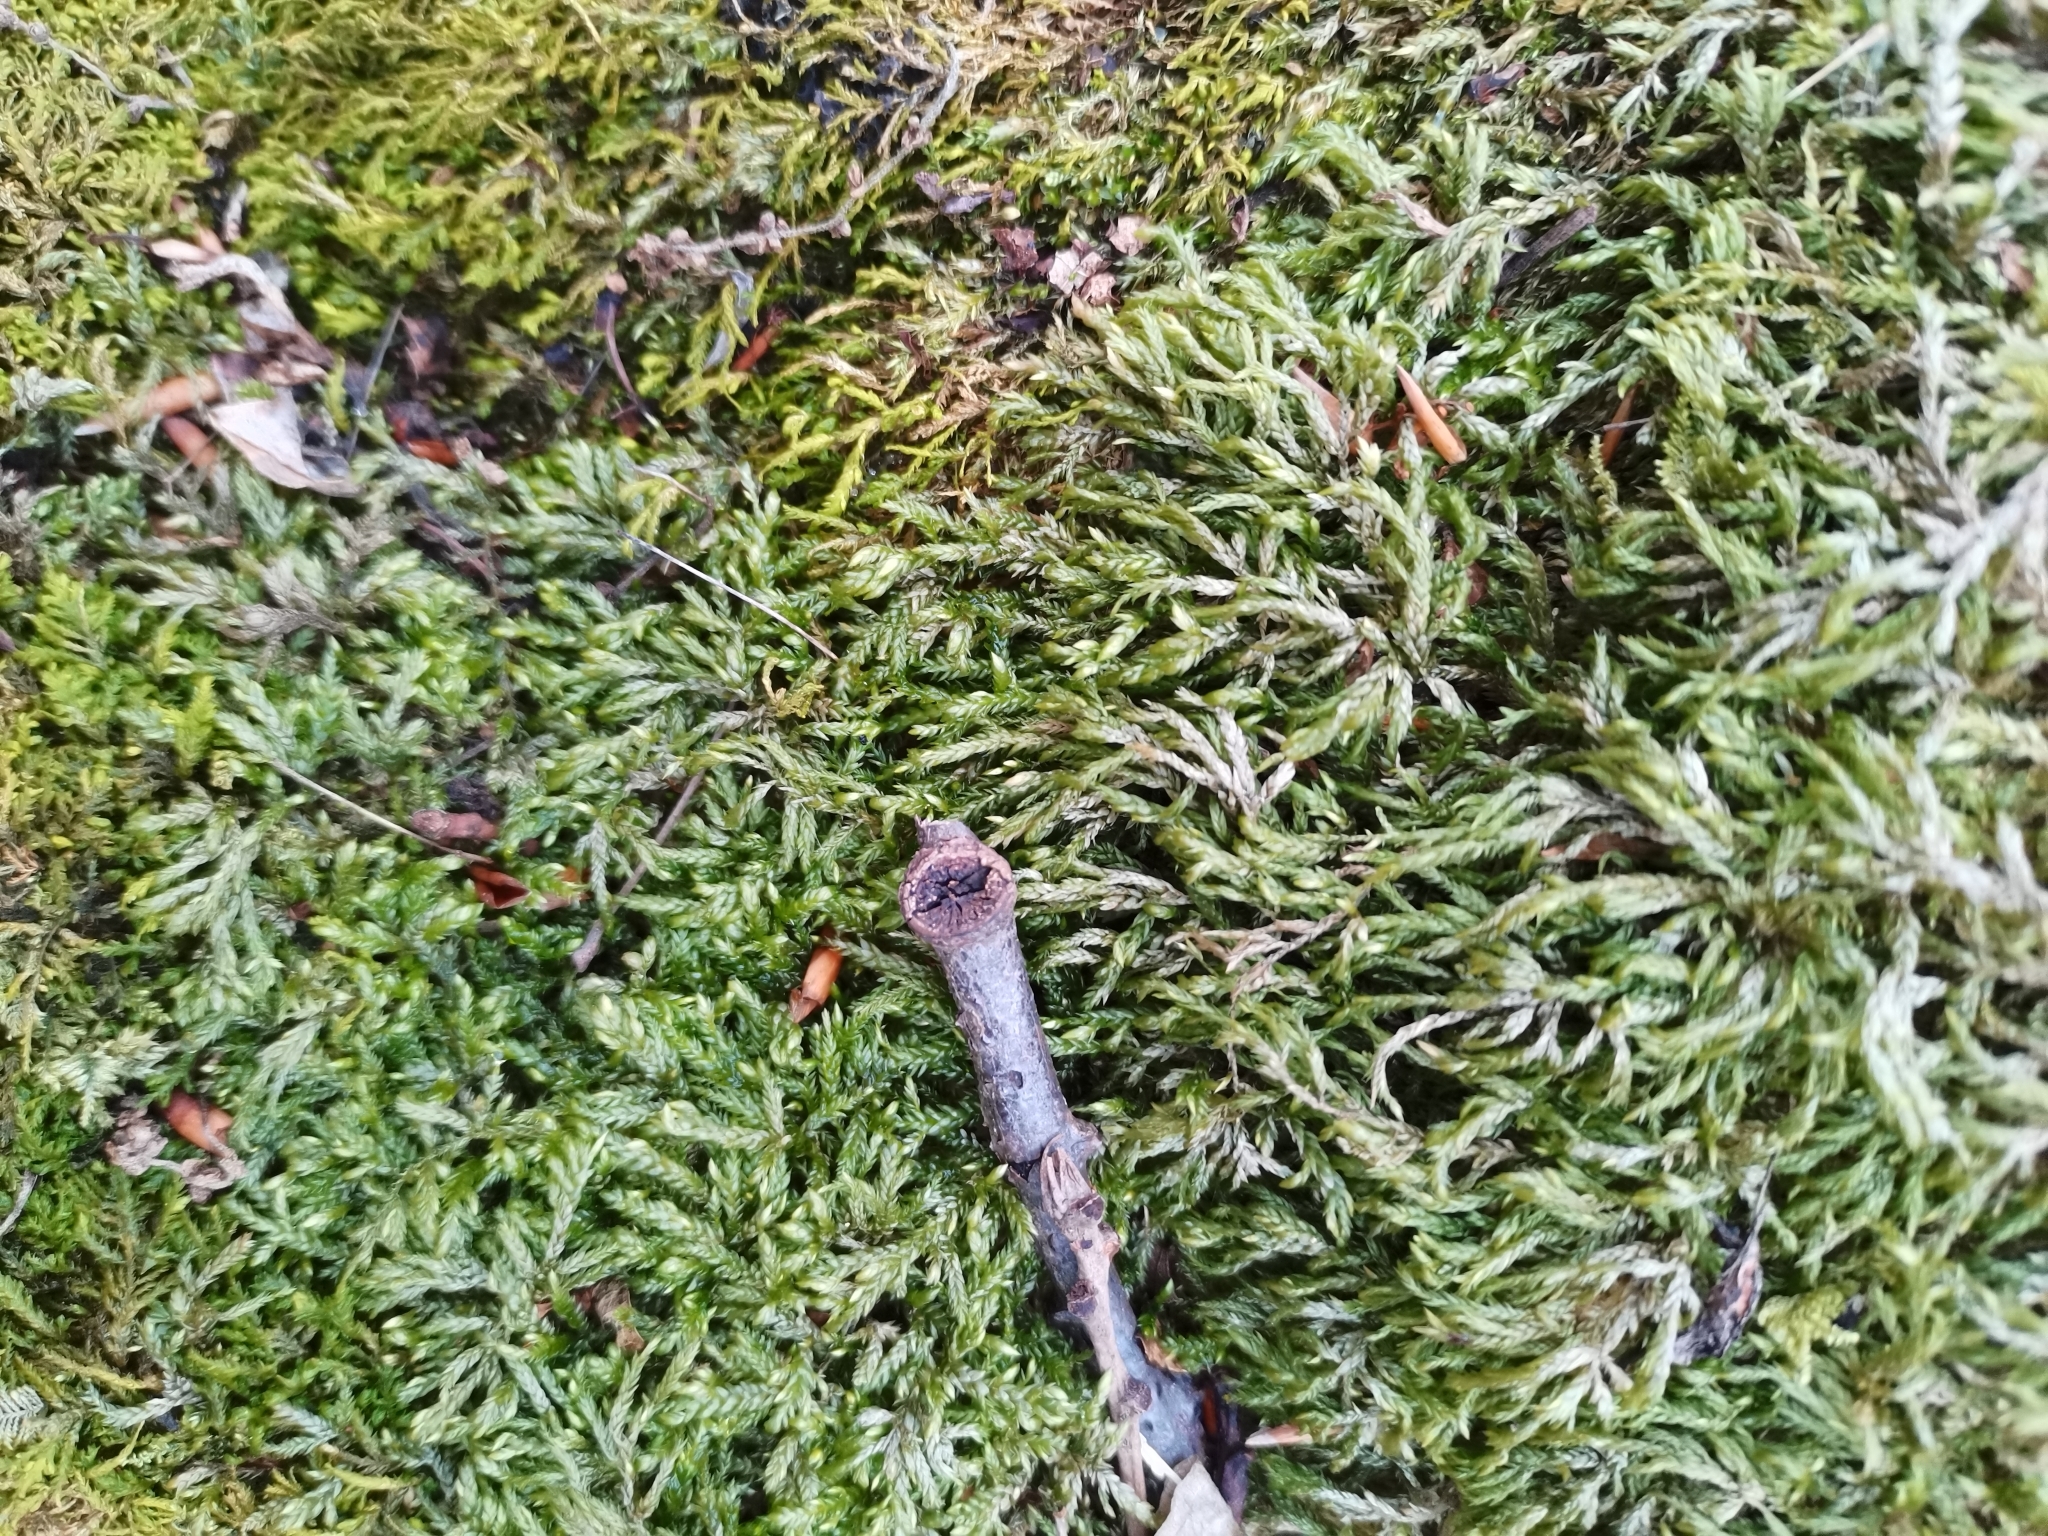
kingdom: Plantae
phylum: Bryophyta
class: Bryopsida
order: Hypnales
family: Lembophyllaceae
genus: Isothecium
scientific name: Isothecium alopecuroides
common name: Larger mouse-tail moss
